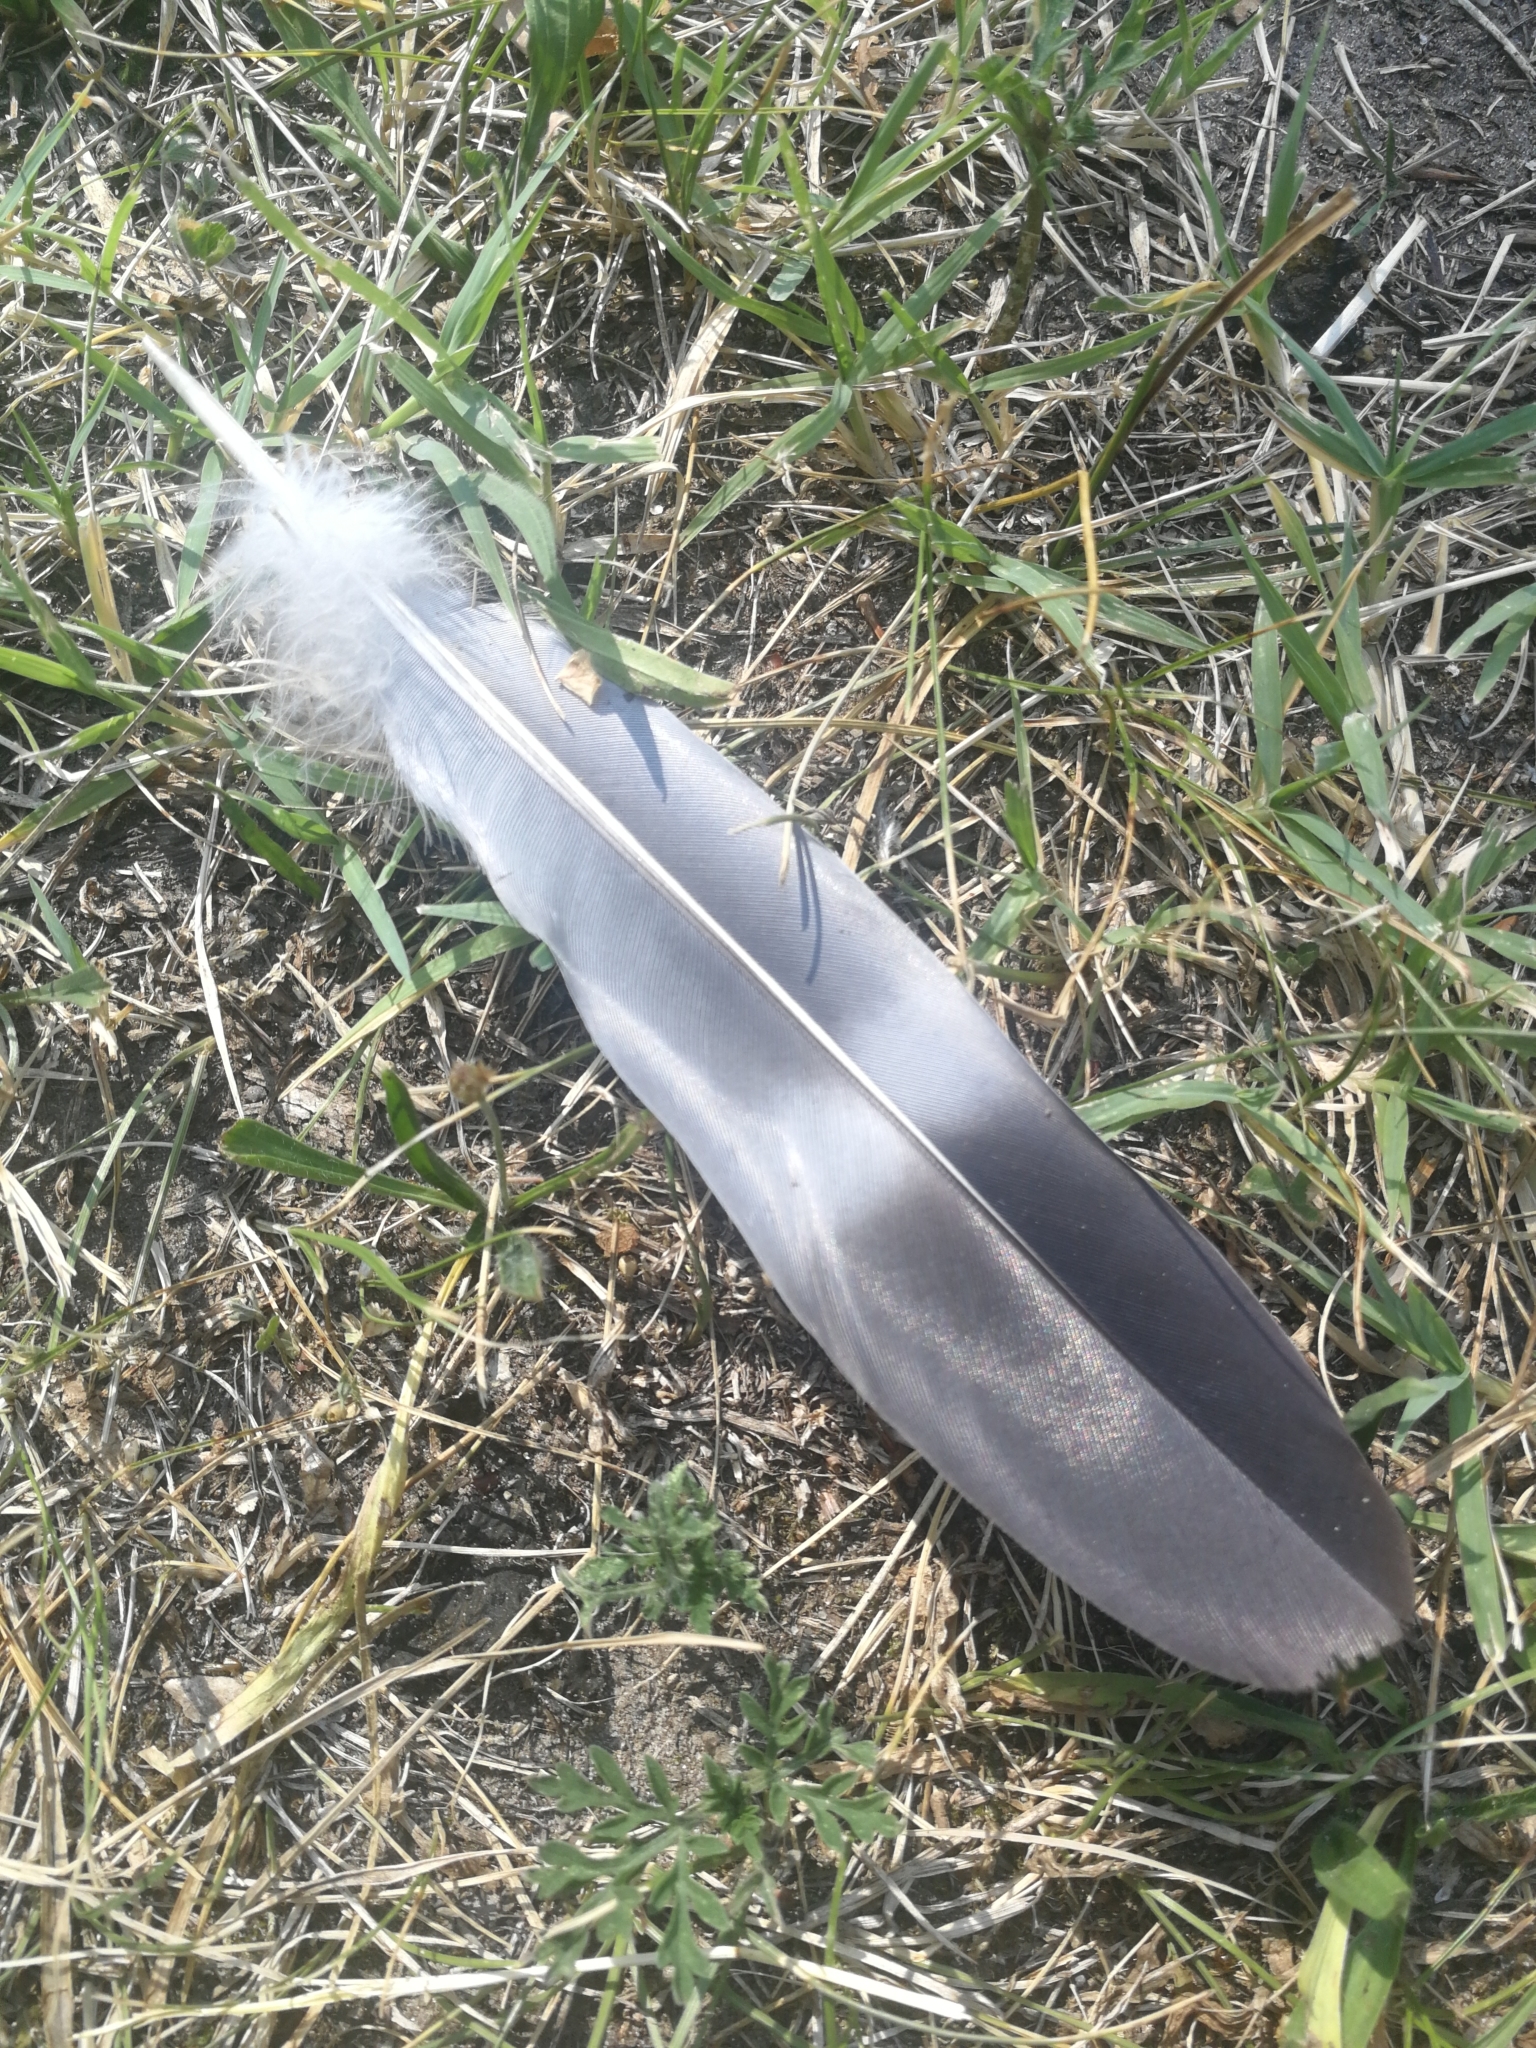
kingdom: Animalia
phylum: Chordata
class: Aves
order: Columbiformes
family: Columbidae
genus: Columba
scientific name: Columba palumbus
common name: Common wood pigeon
